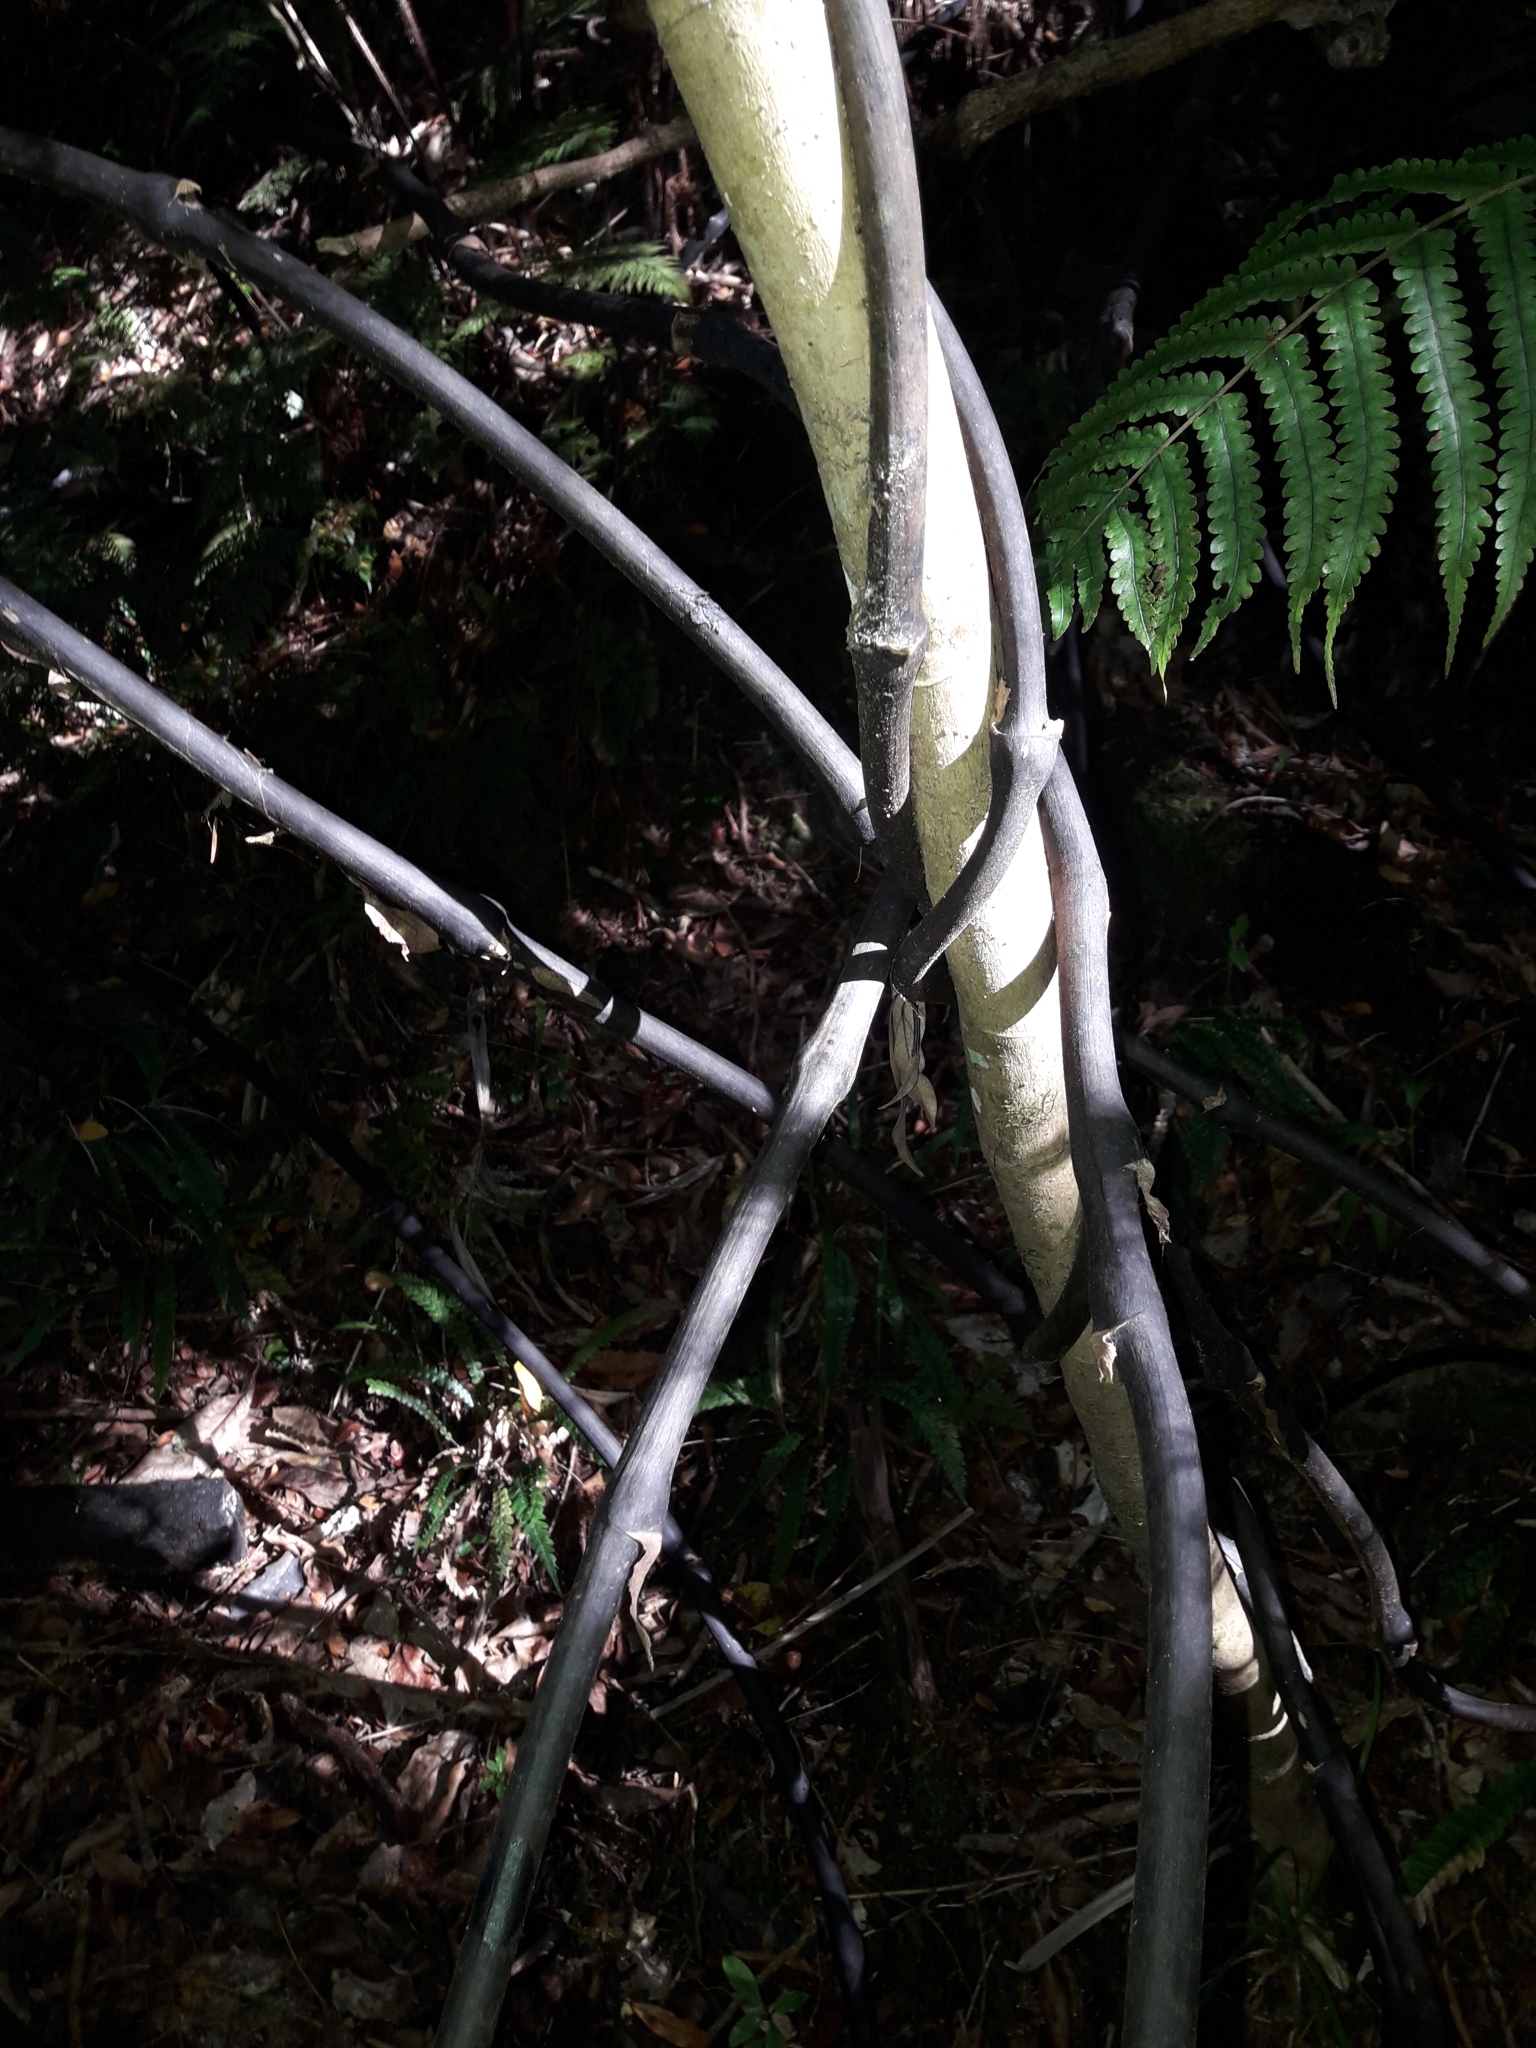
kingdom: Plantae
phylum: Tracheophyta
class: Liliopsida
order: Liliales
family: Ripogonaceae
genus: Ripogonum
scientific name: Ripogonum scandens
